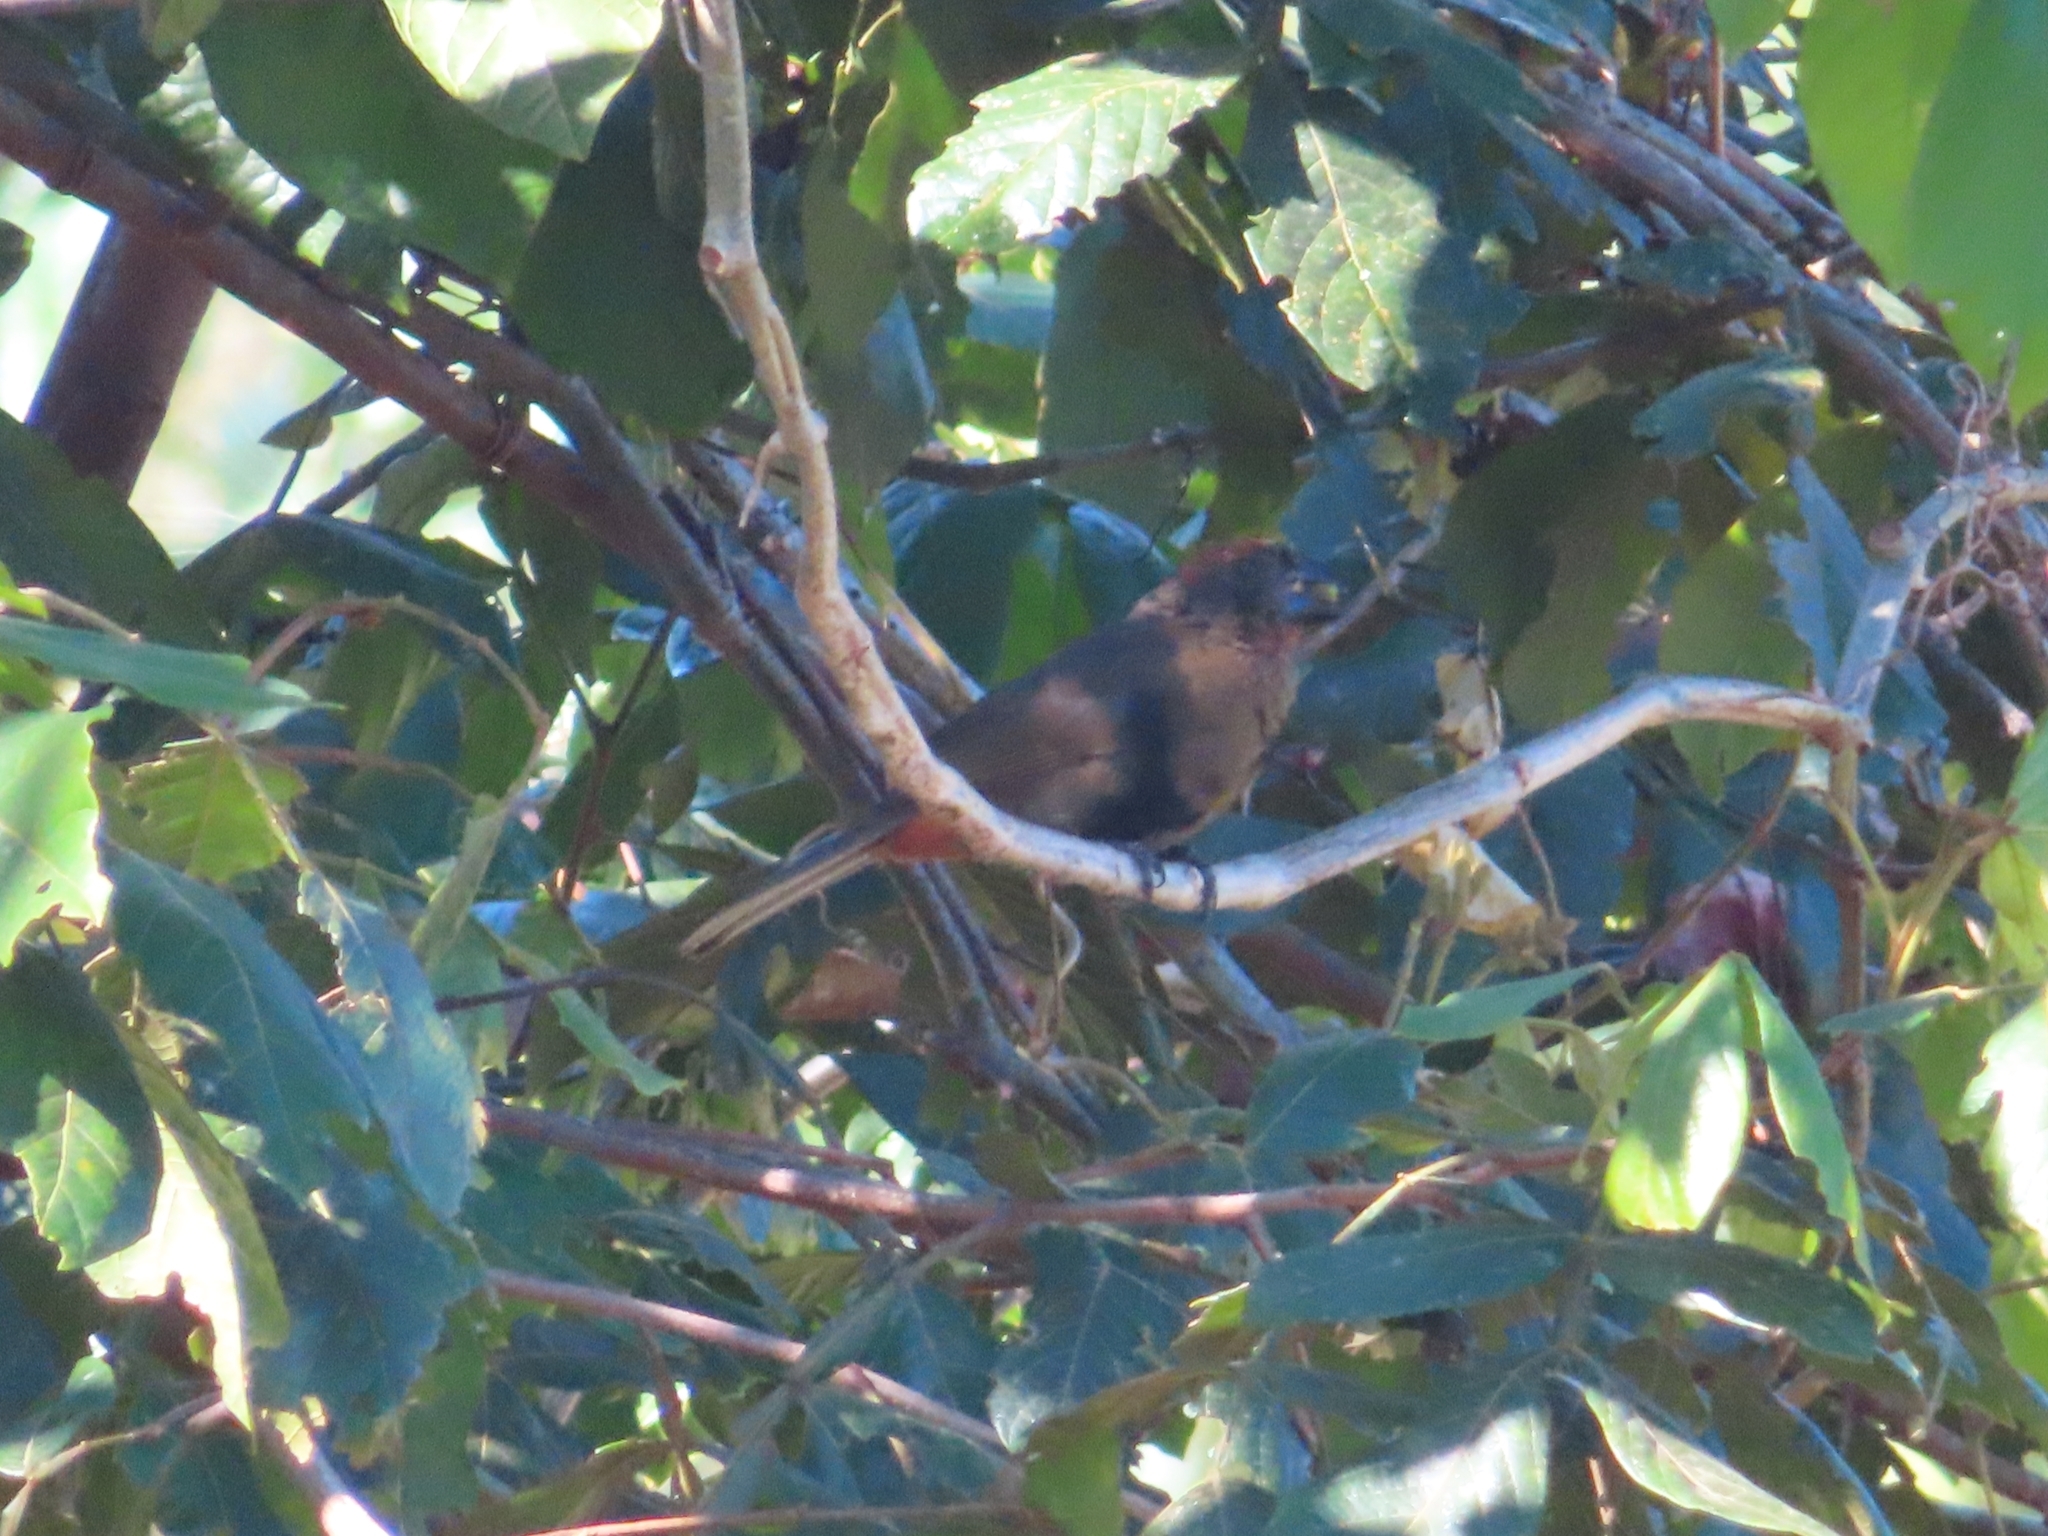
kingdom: Animalia
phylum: Chordata
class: Aves
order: Passeriformes
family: Thraupidae
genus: Melopyrrha
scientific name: Melopyrrha portoricensis
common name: Puerto rican bullfinch
